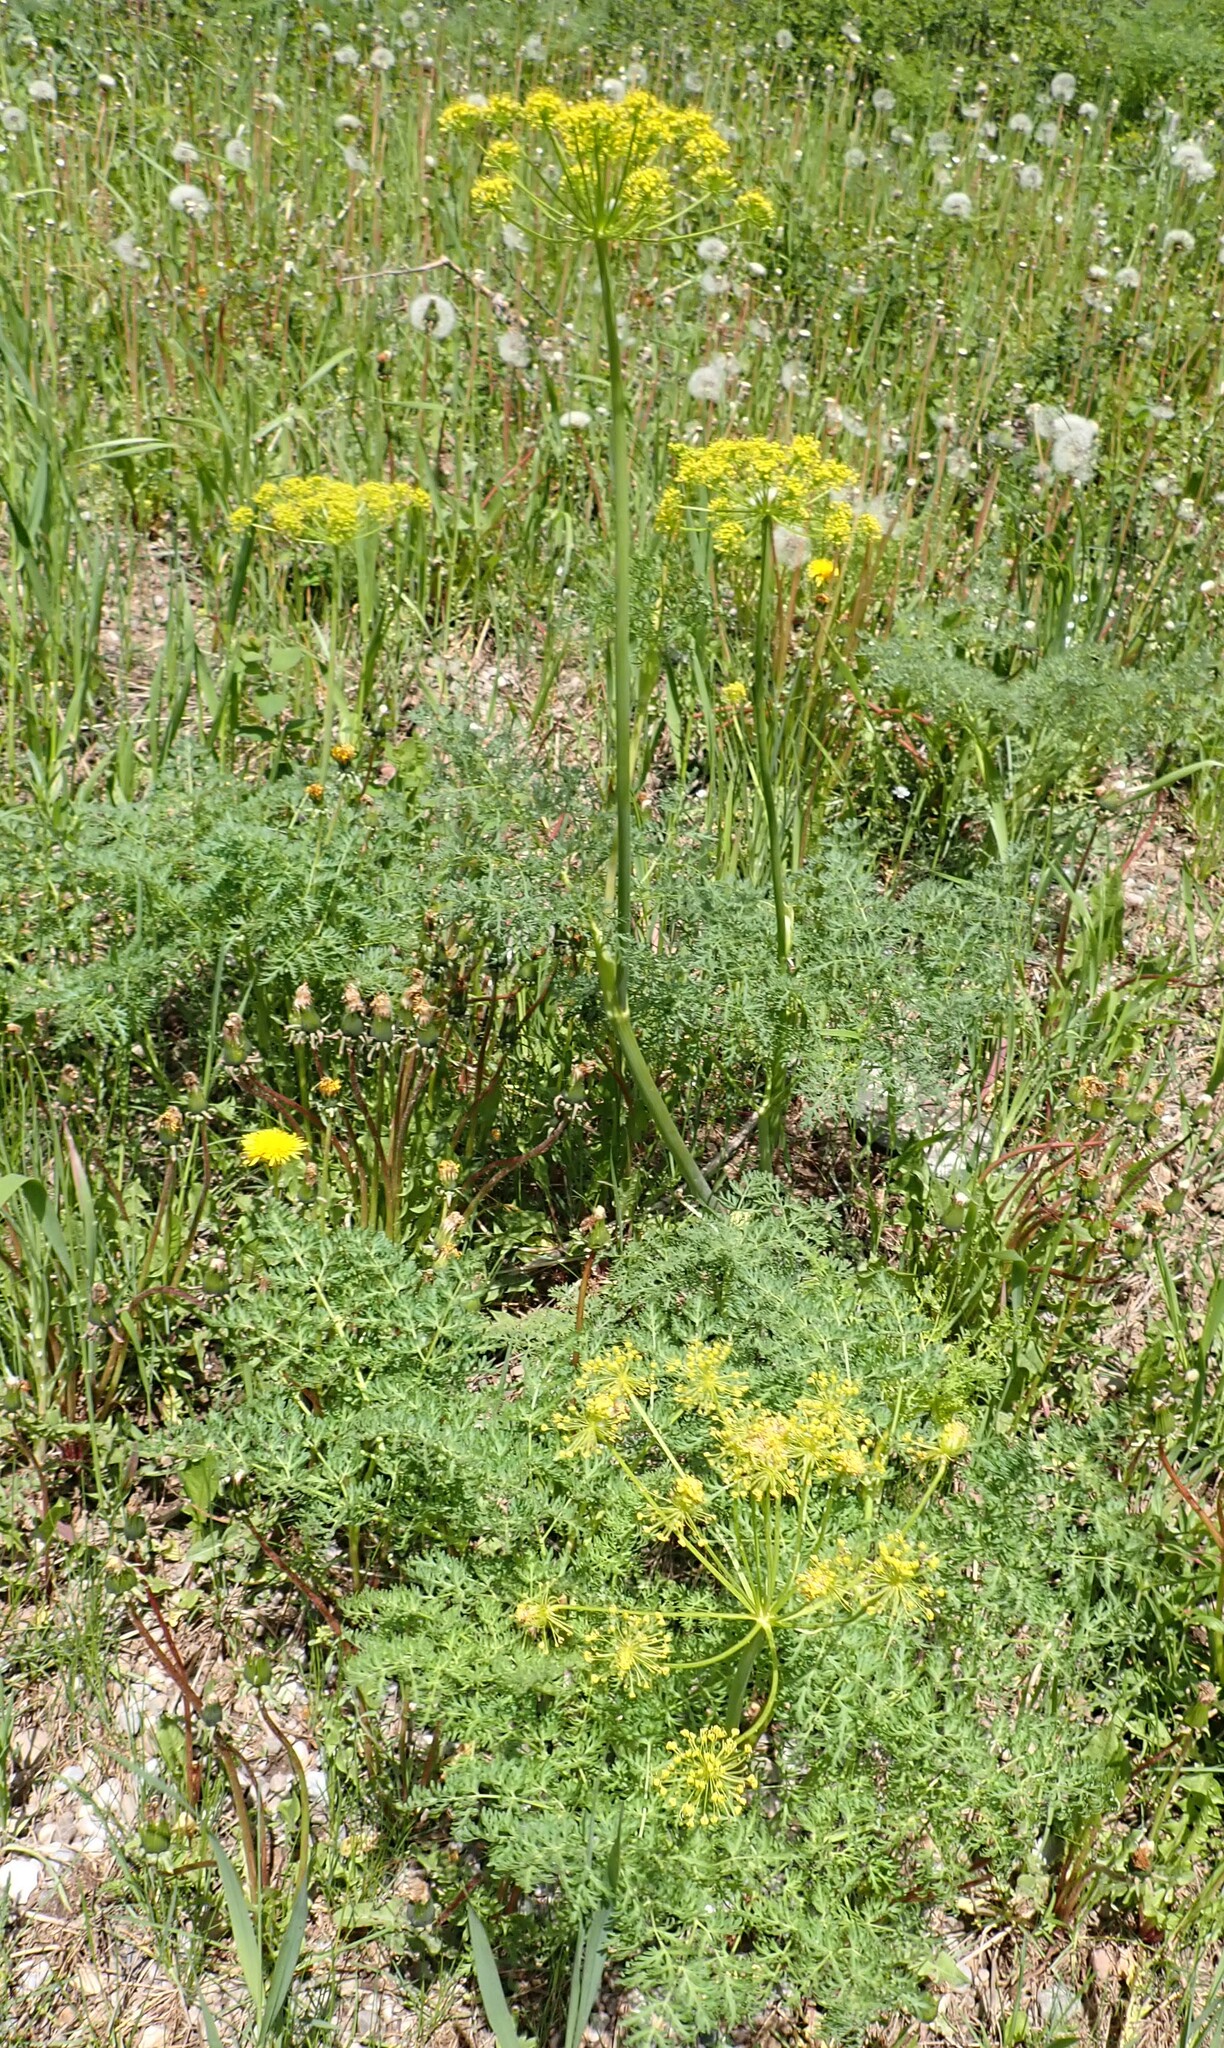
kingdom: Plantae
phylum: Tracheophyta
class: Magnoliopsida
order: Apiales
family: Apiaceae
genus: Lomatium
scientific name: Lomatium multifidum
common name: Carrot-leaved biscuitroot
